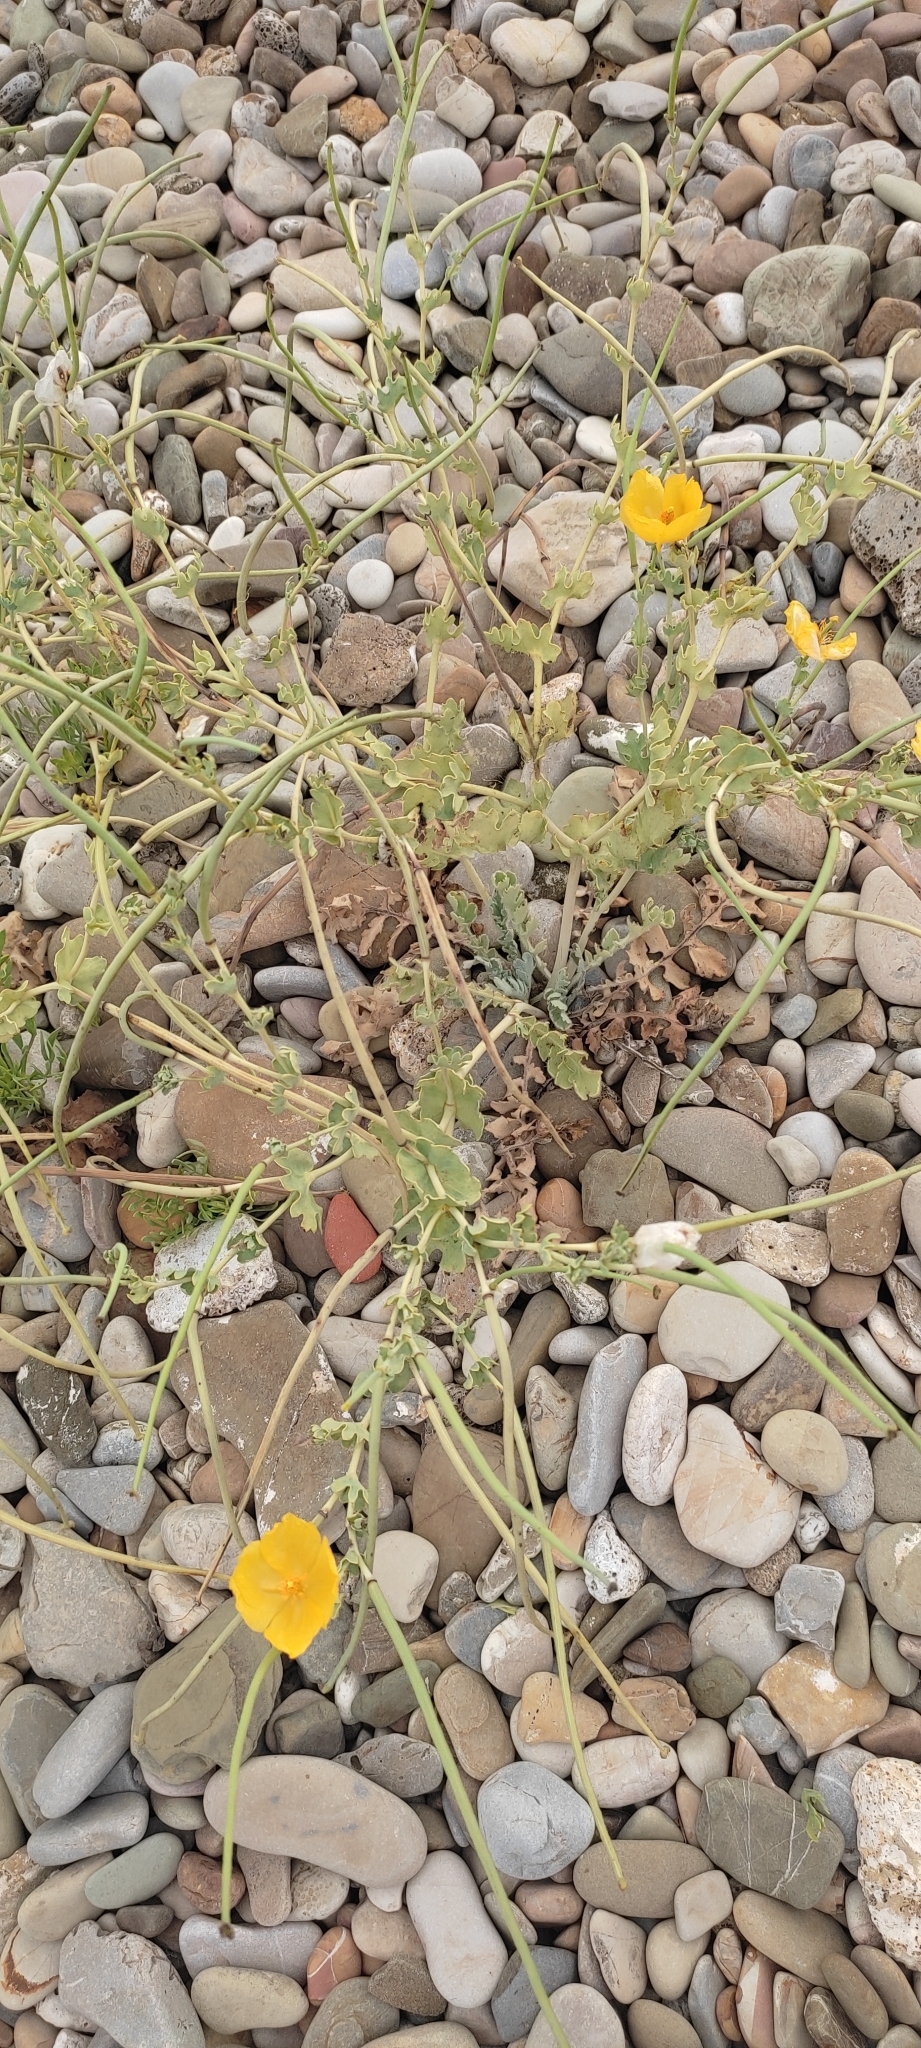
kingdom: Plantae
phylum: Tracheophyta
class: Magnoliopsida
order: Ranunculales
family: Papaveraceae
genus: Glaucium
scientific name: Glaucium flavum
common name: Yellow horned-poppy
